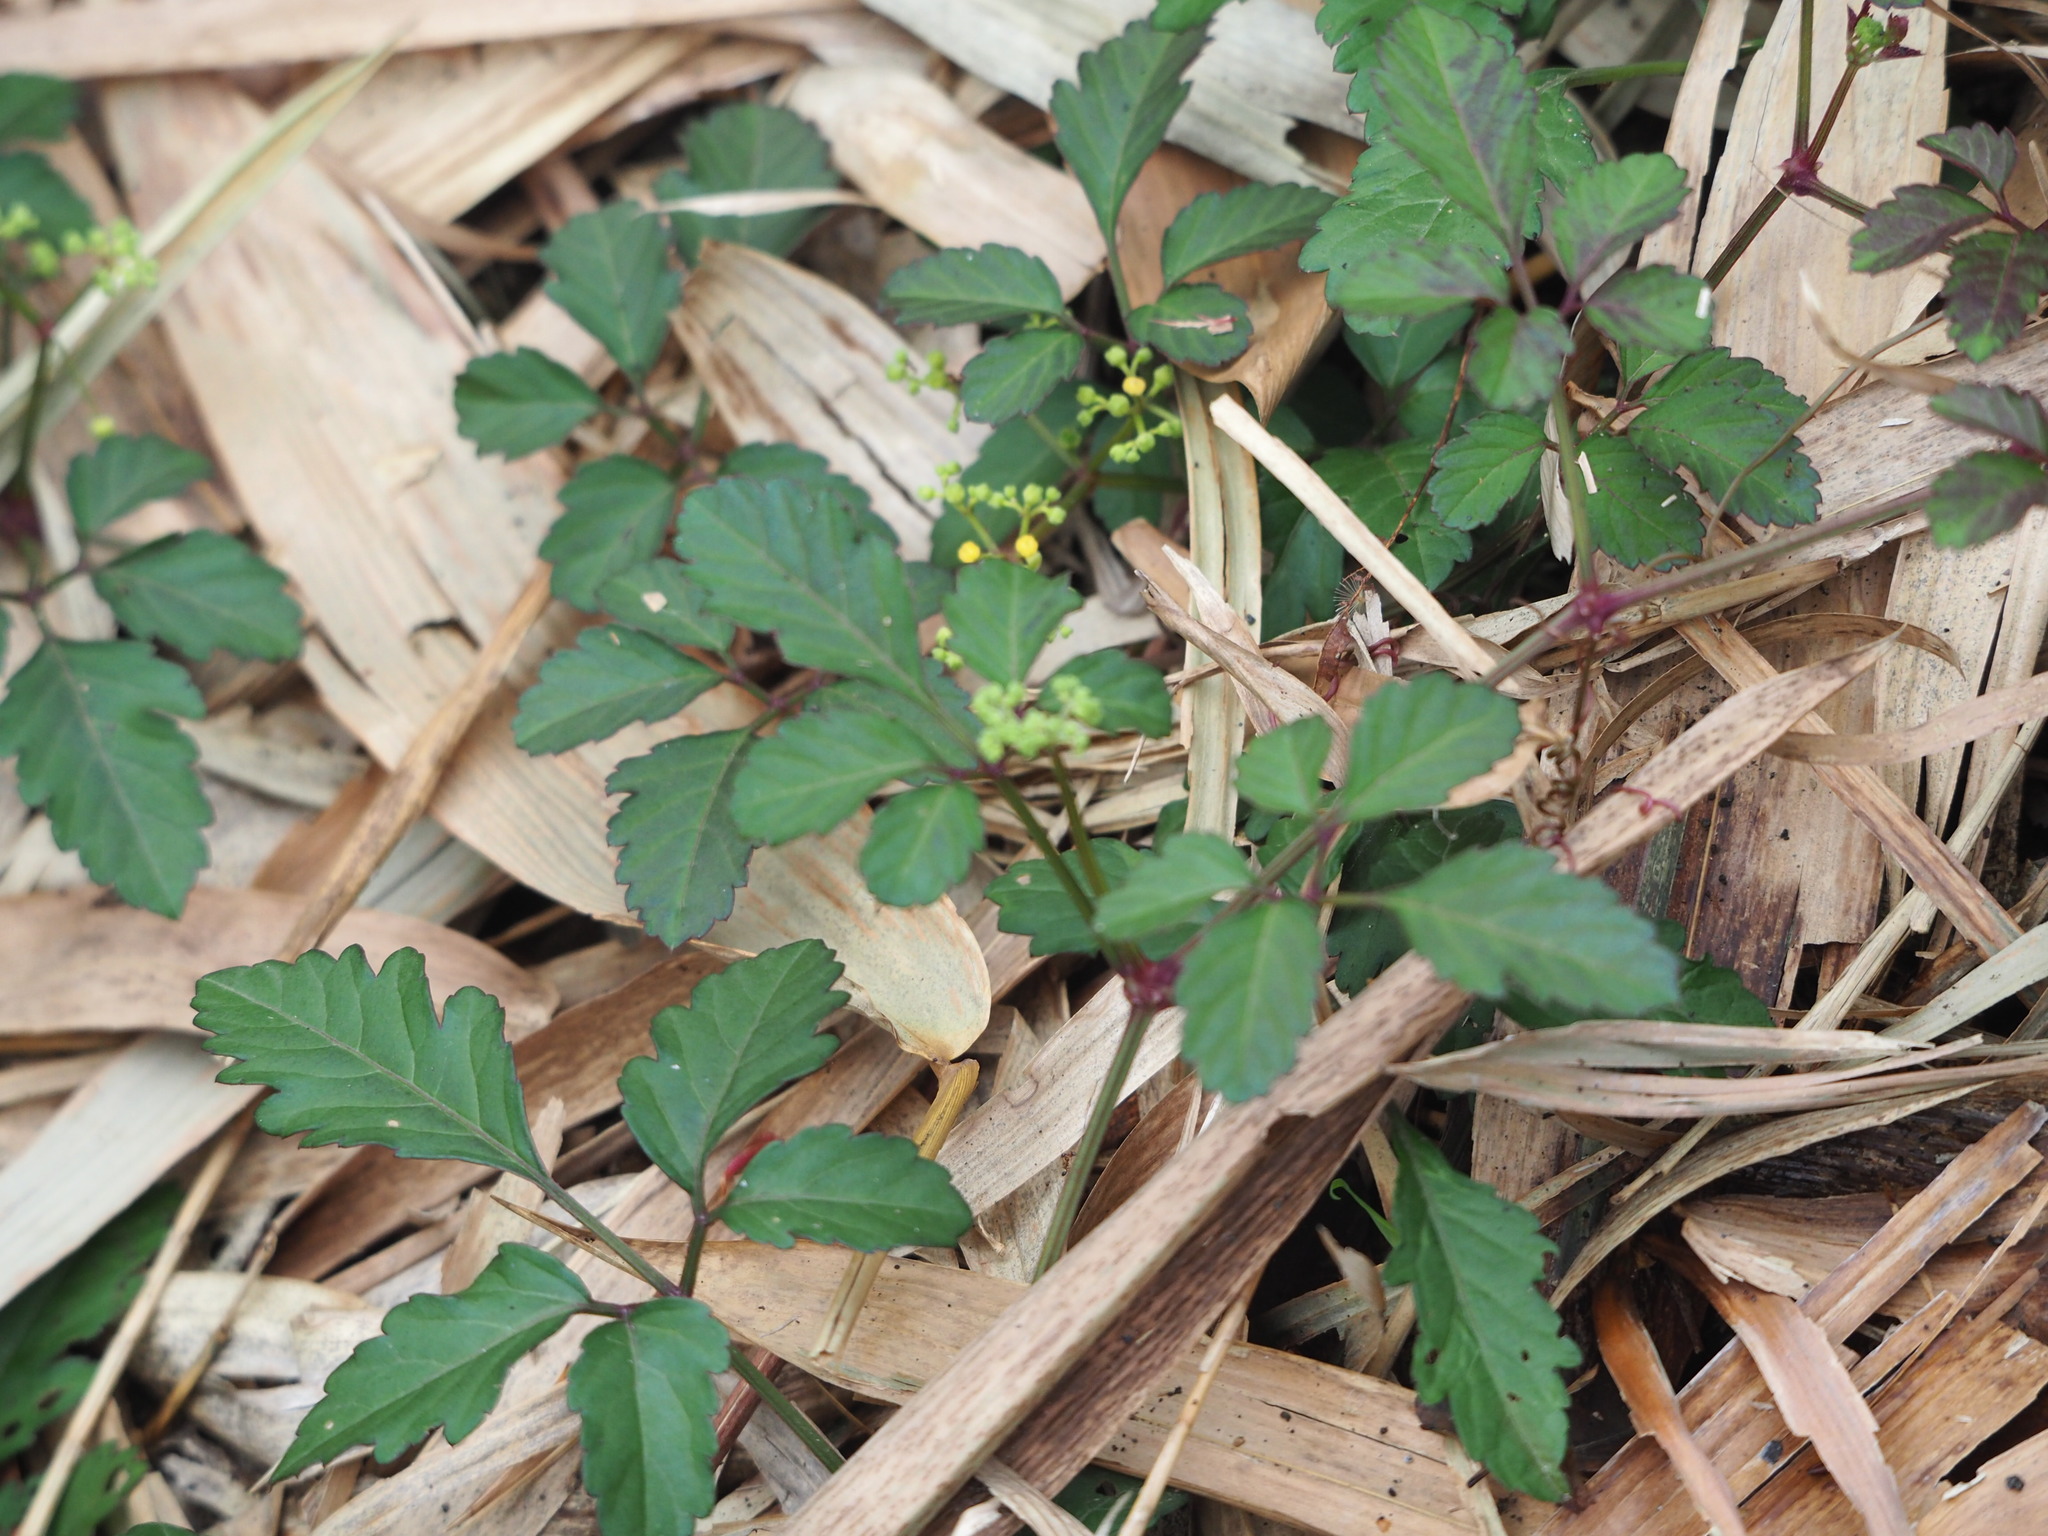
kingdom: Plantae
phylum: Tracheophyta
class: Magnoliopsida
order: Vitales
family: Vitaceae
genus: Causonis
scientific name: Causonis japonica
